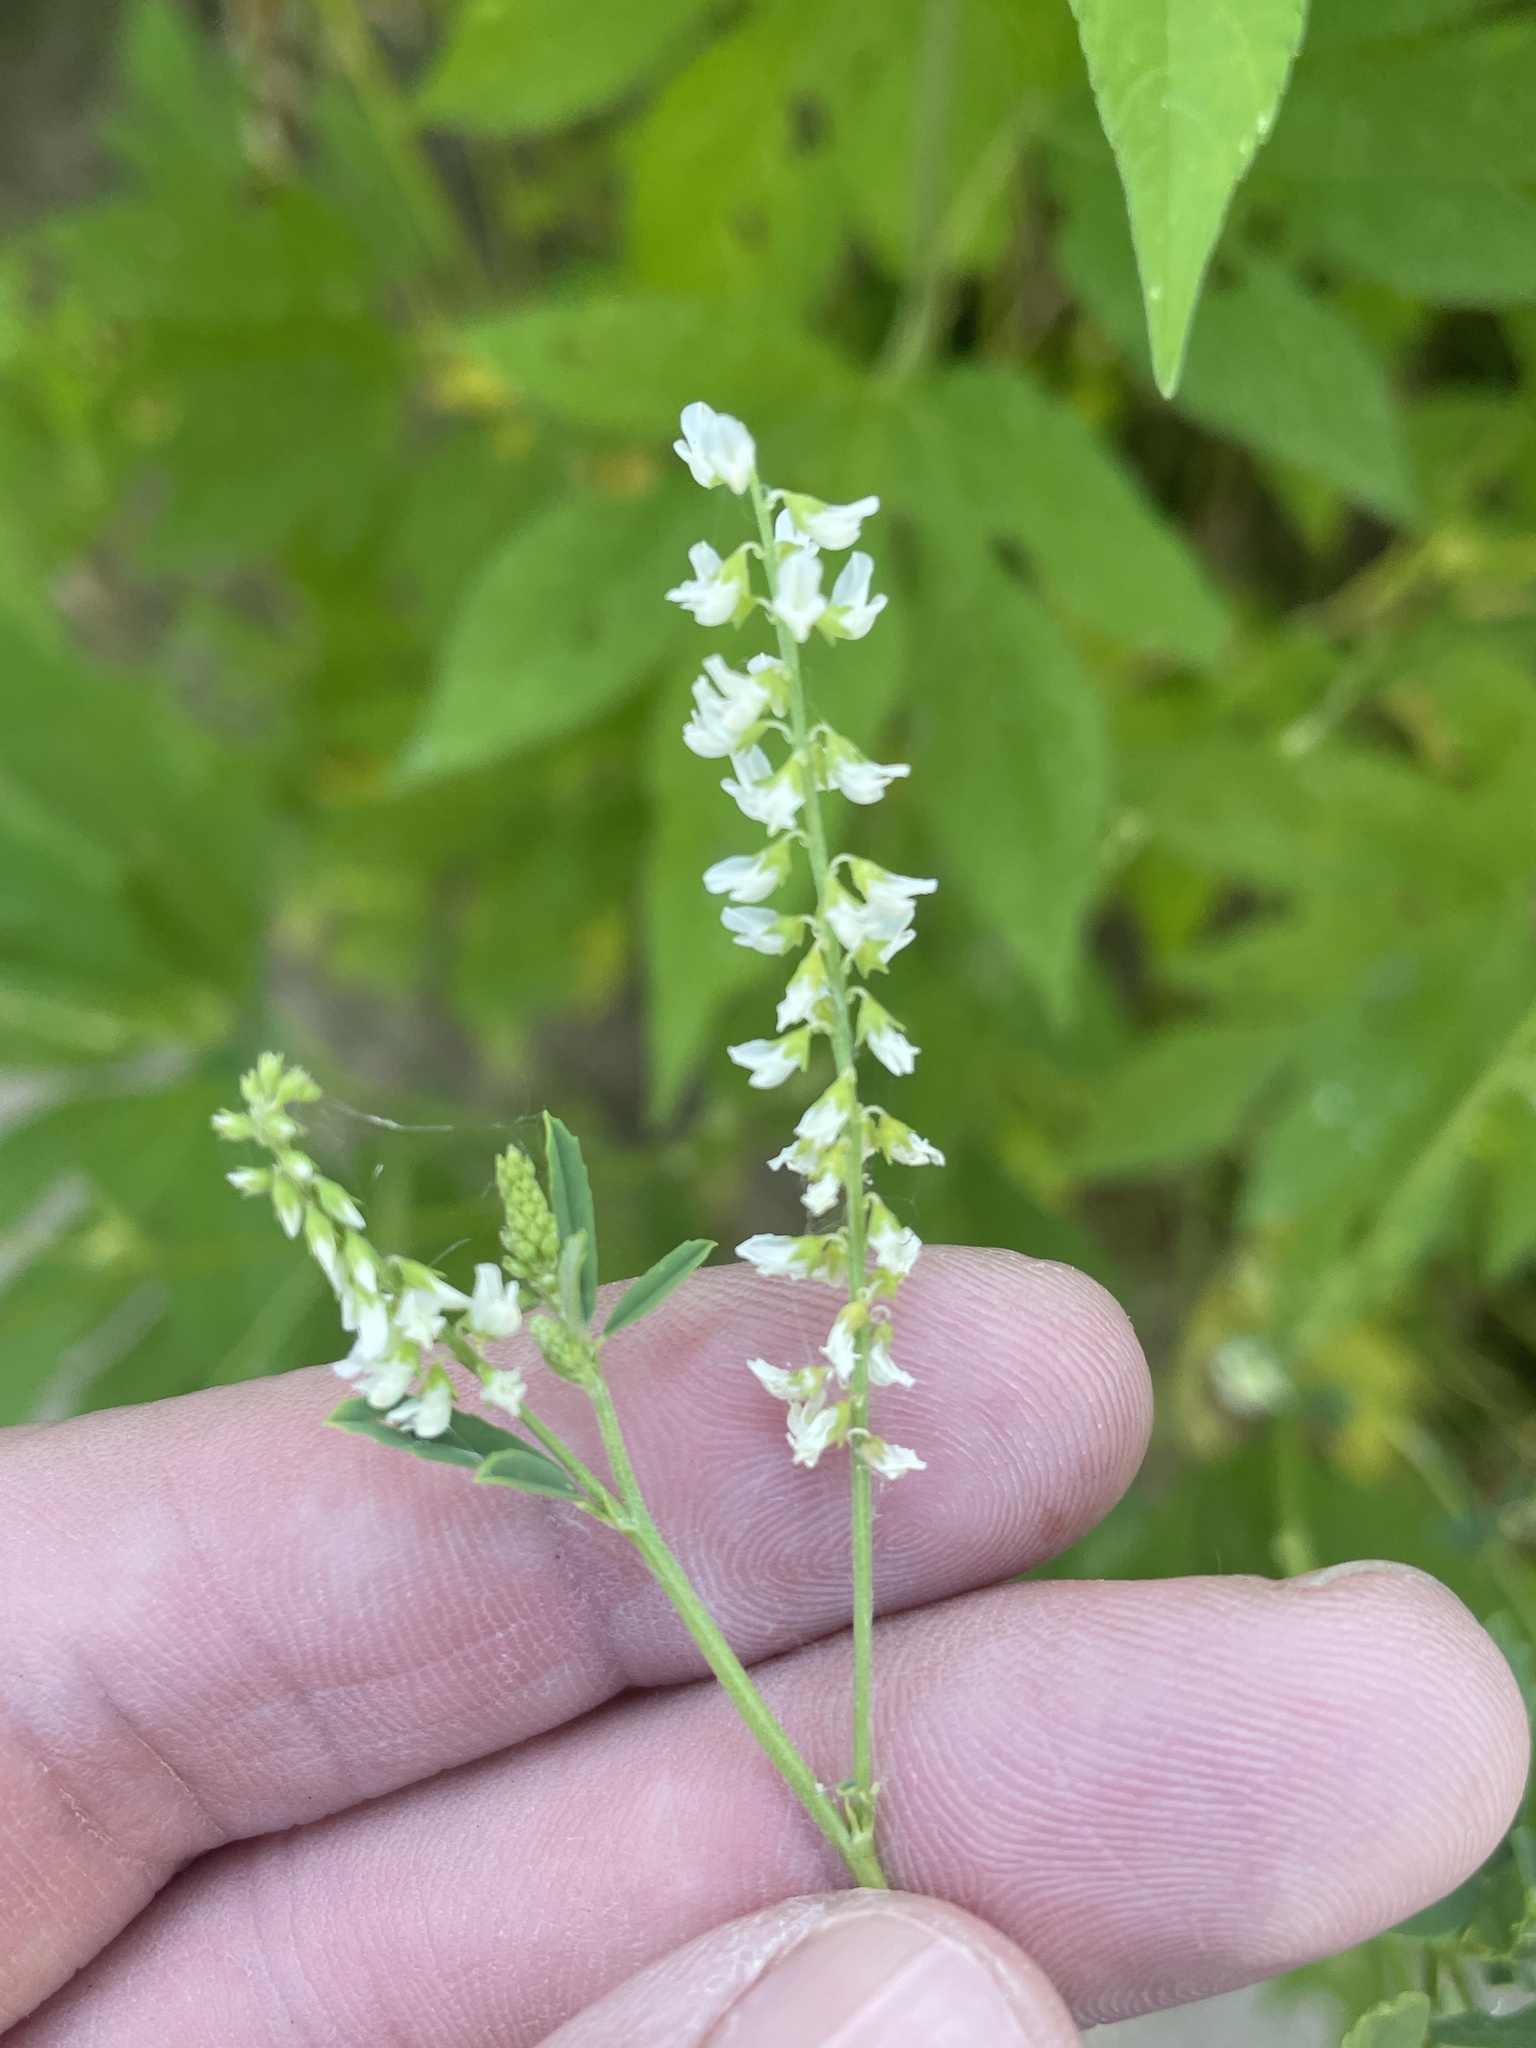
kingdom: Plantae
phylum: Tracheophyta
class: Magnoliopsida
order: Fabales
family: Fabaceae
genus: Melilotus
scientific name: Melilotus albus
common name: White melilot
